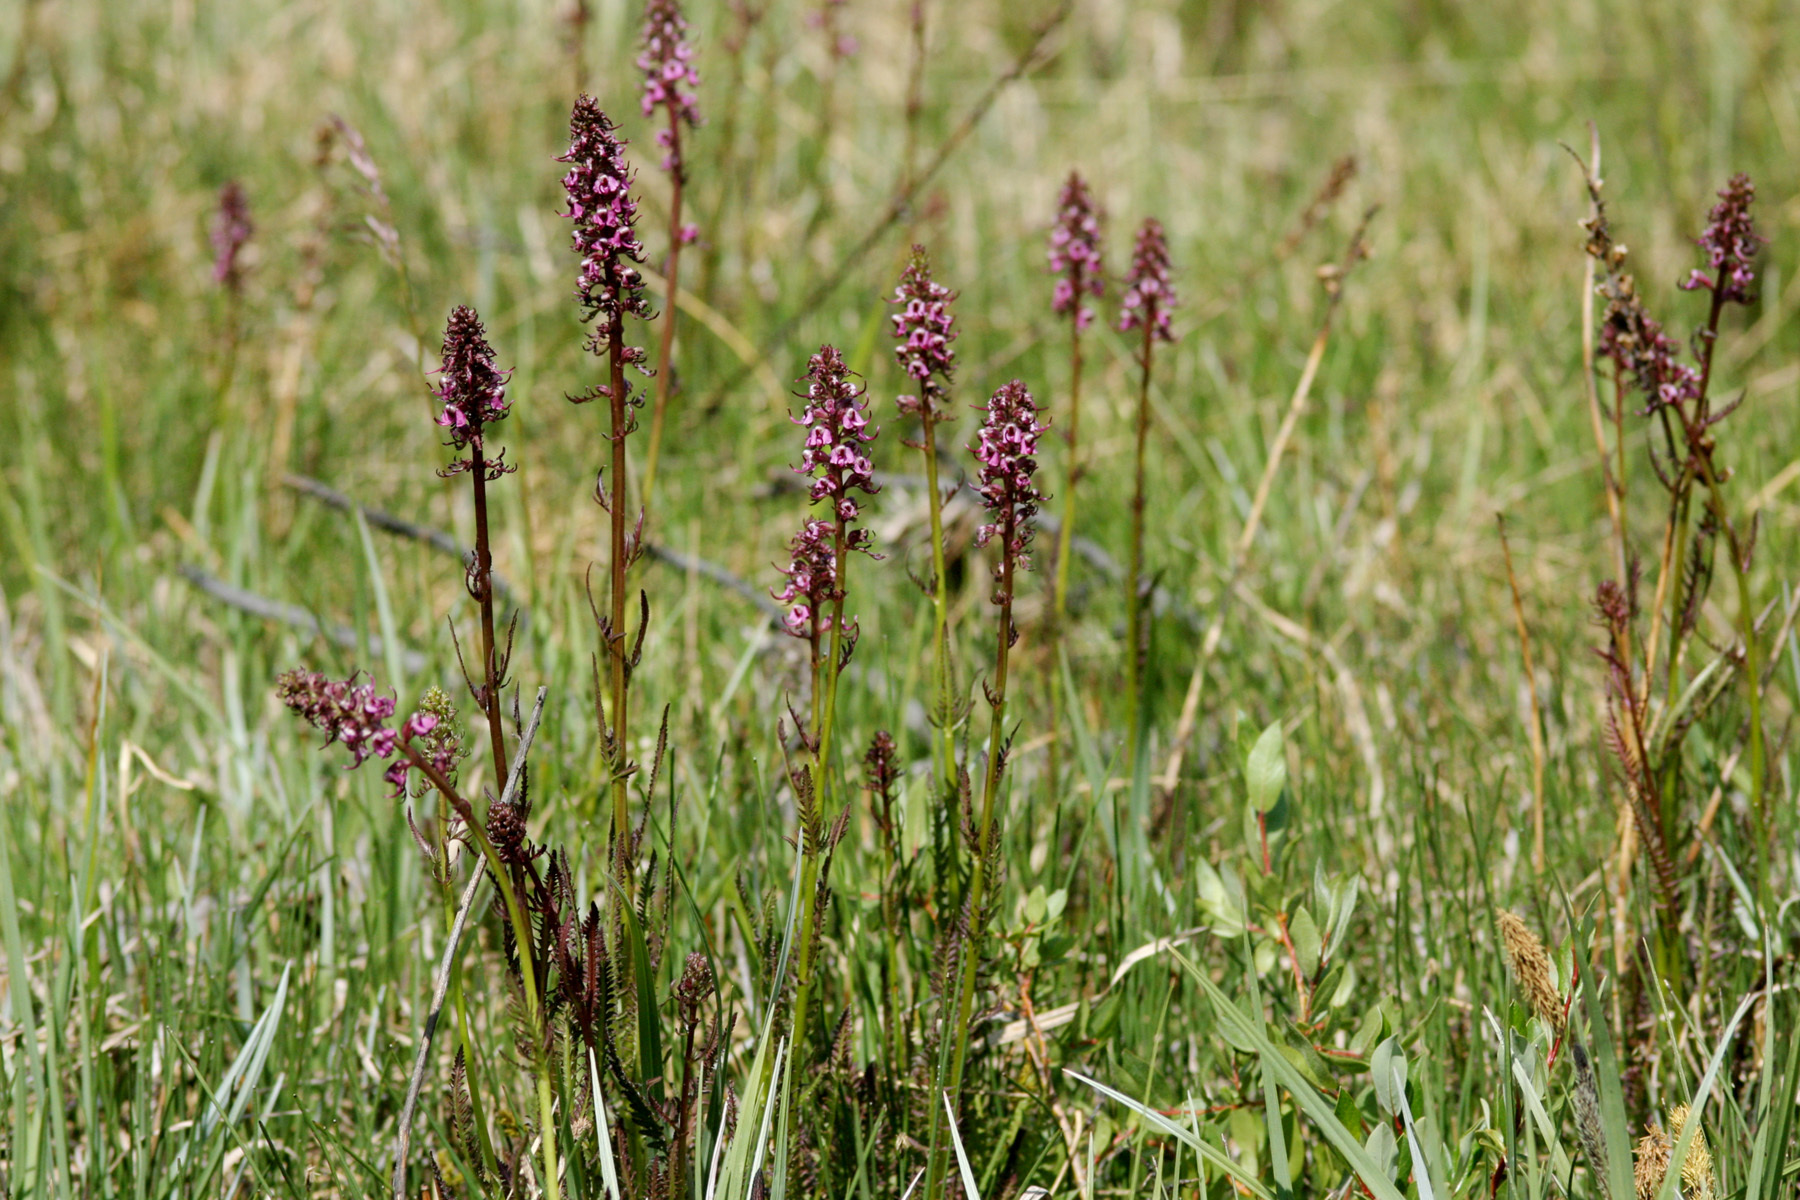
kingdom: Plantae
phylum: Tracheophyta
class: Magnoliopsida
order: Lamiales
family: Orobanchaceae
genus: Pedicularis
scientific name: Pedicularis groenlandica
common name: Elephant's-head
